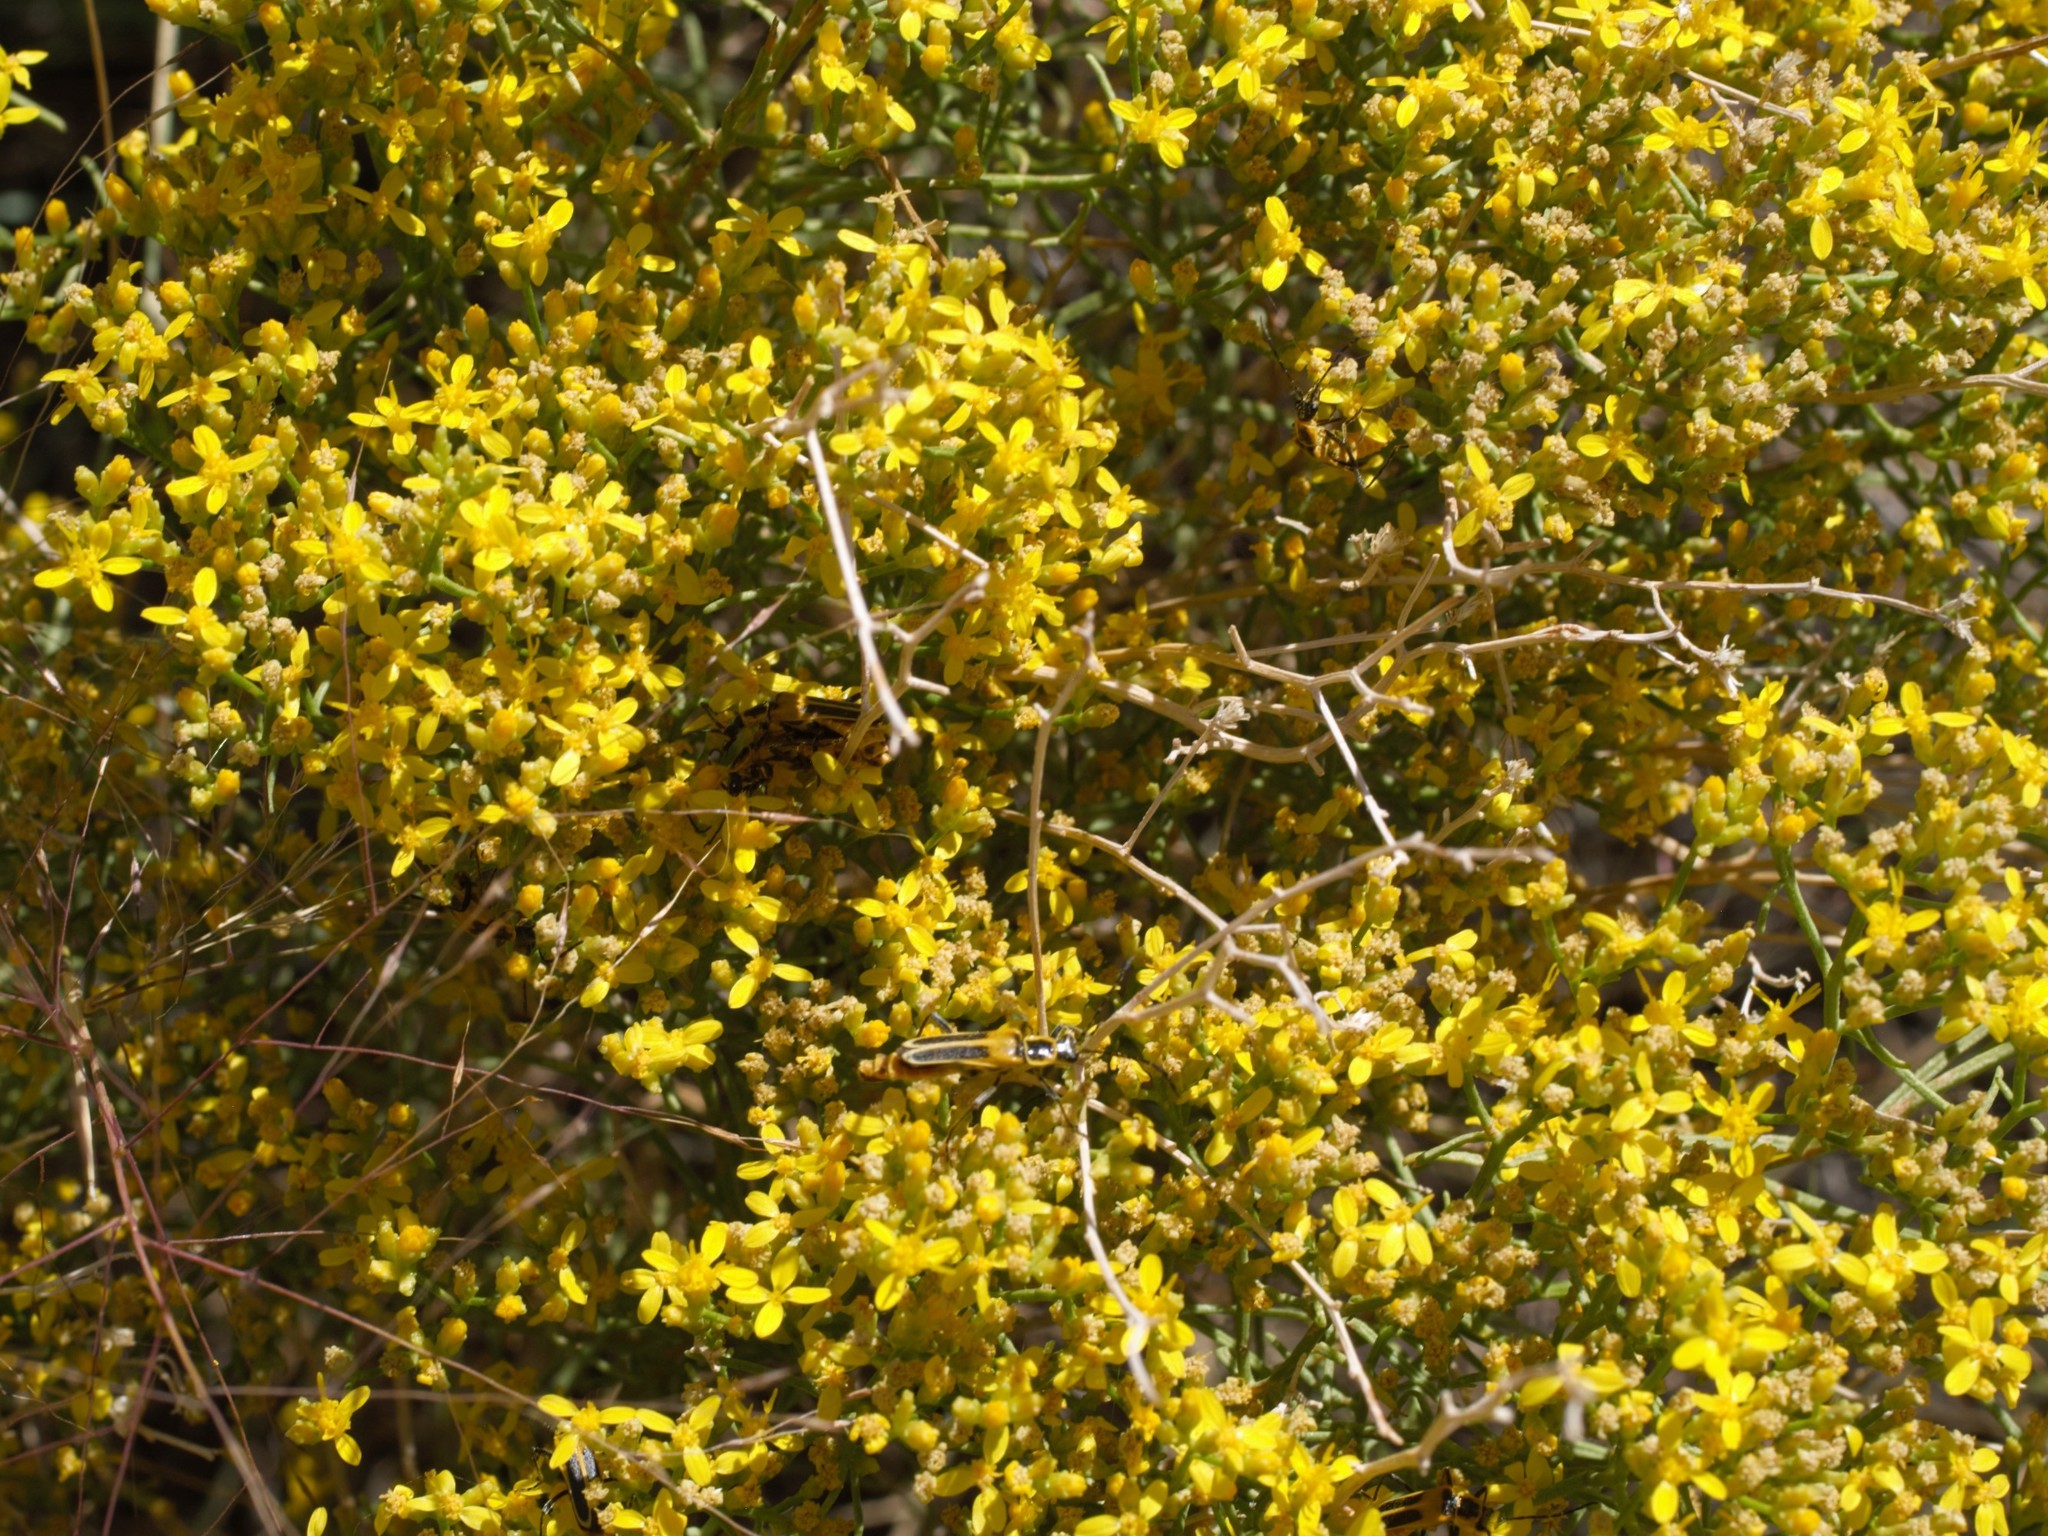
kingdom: Animalia
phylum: Arthropoda
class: Insecta
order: Coleoptera
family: Cantharidae
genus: Chauliognathus
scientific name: Chauliognathus lewisi
